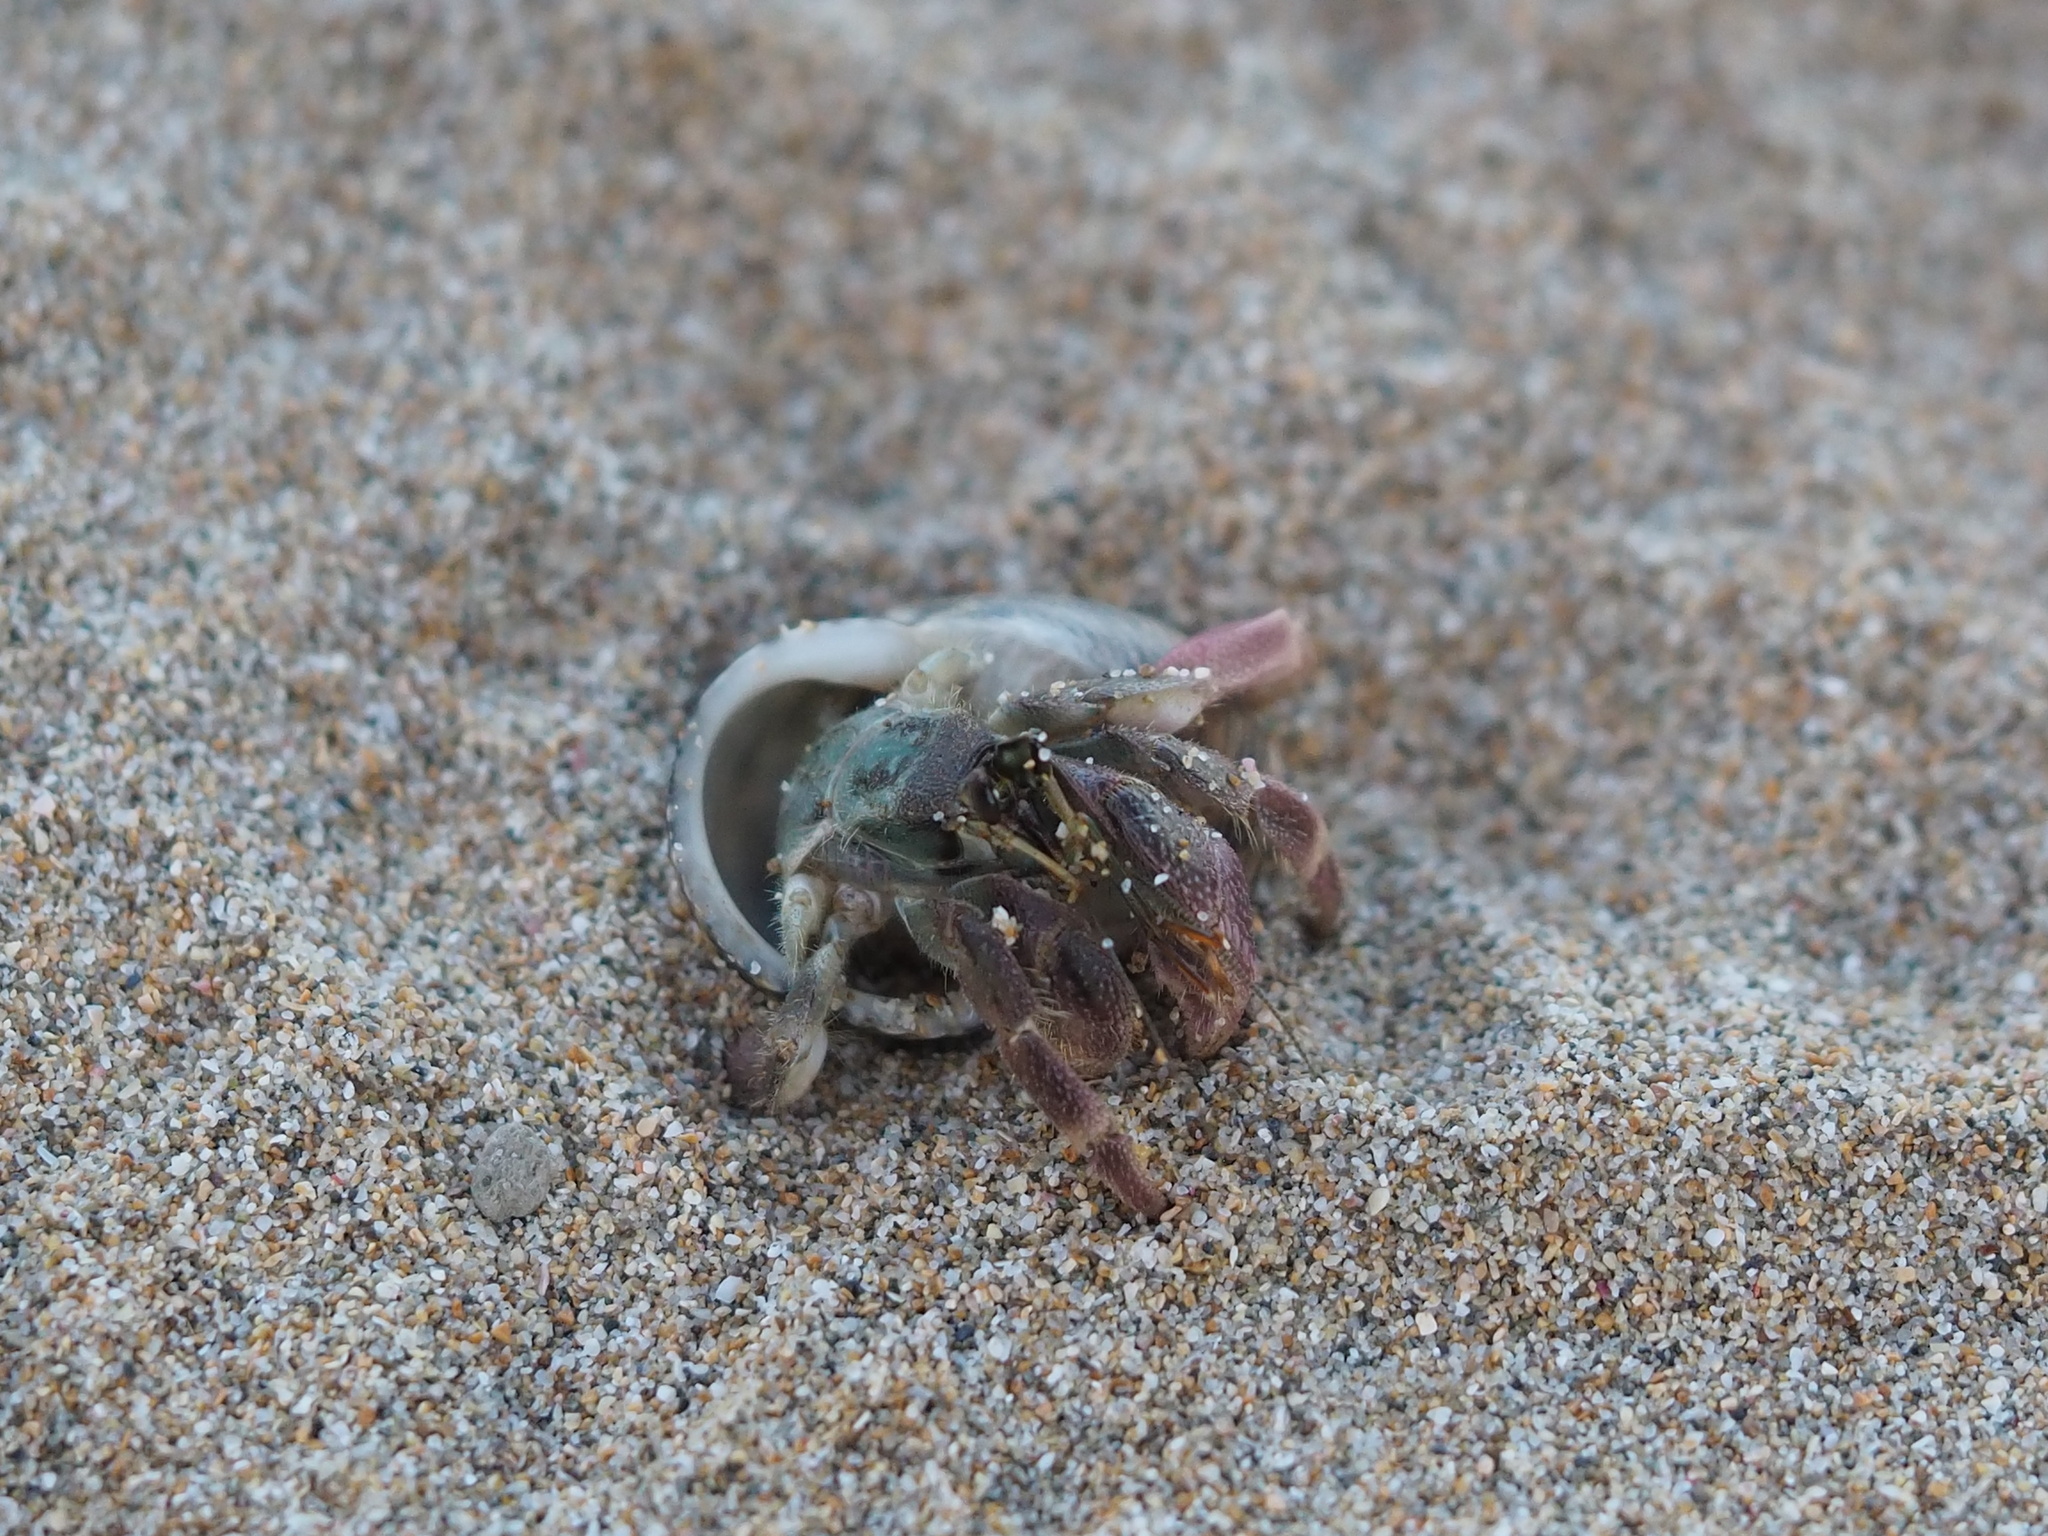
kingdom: Animalia
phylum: Arthropoda
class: Malacostraca
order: Decapoda
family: Coenobitidae
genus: Coenobita
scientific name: Coenobita rugosus
